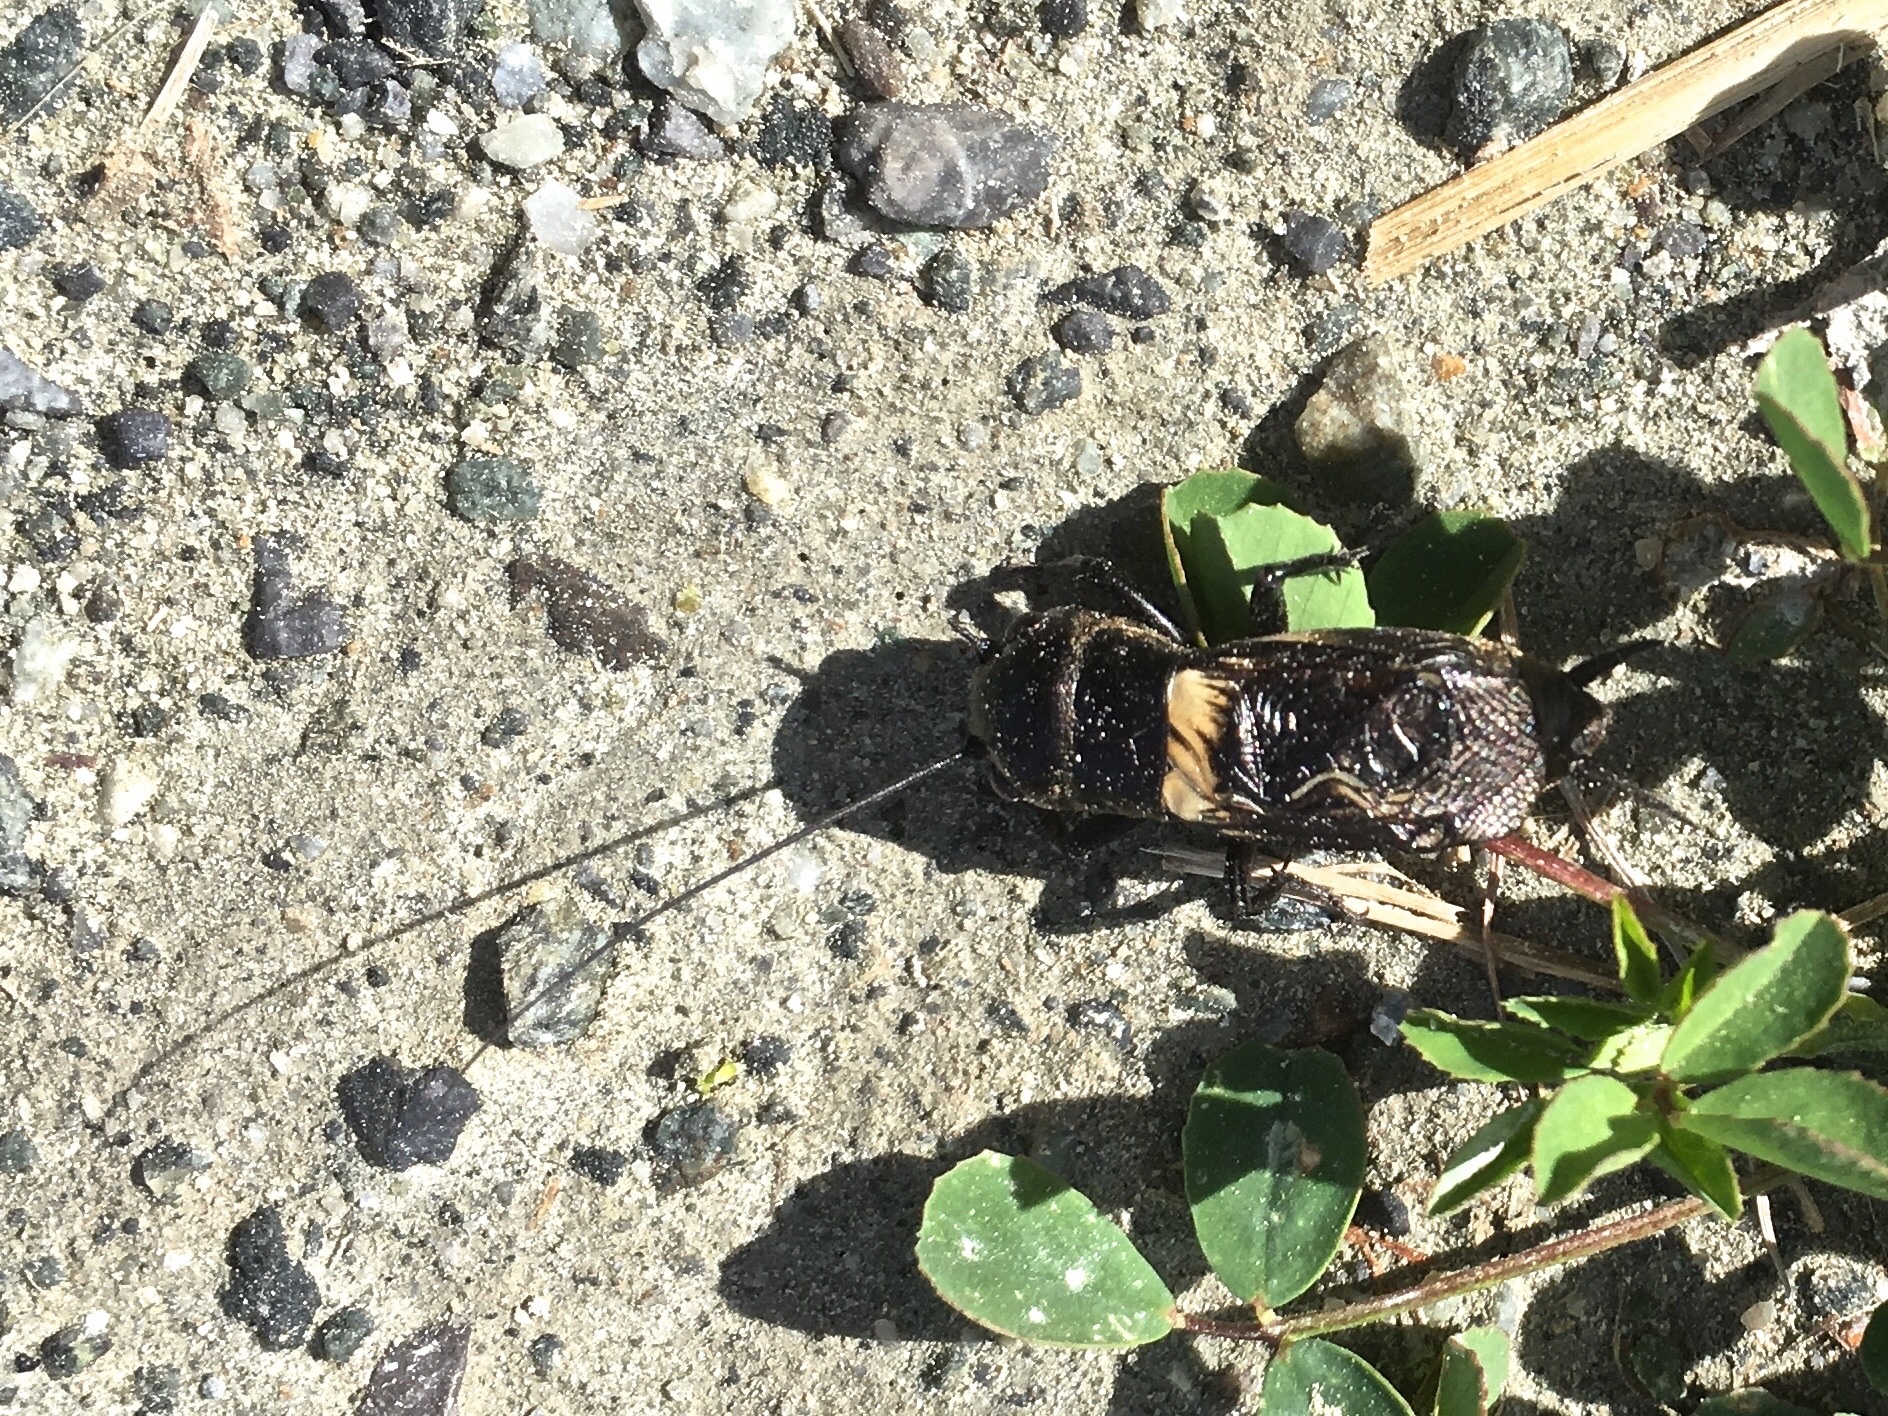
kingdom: Animalia
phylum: Arthropoda
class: Insecta
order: Orthoptera
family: Gryllidae
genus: Gryllus
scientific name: Gryllus campestris
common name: Field cricket
